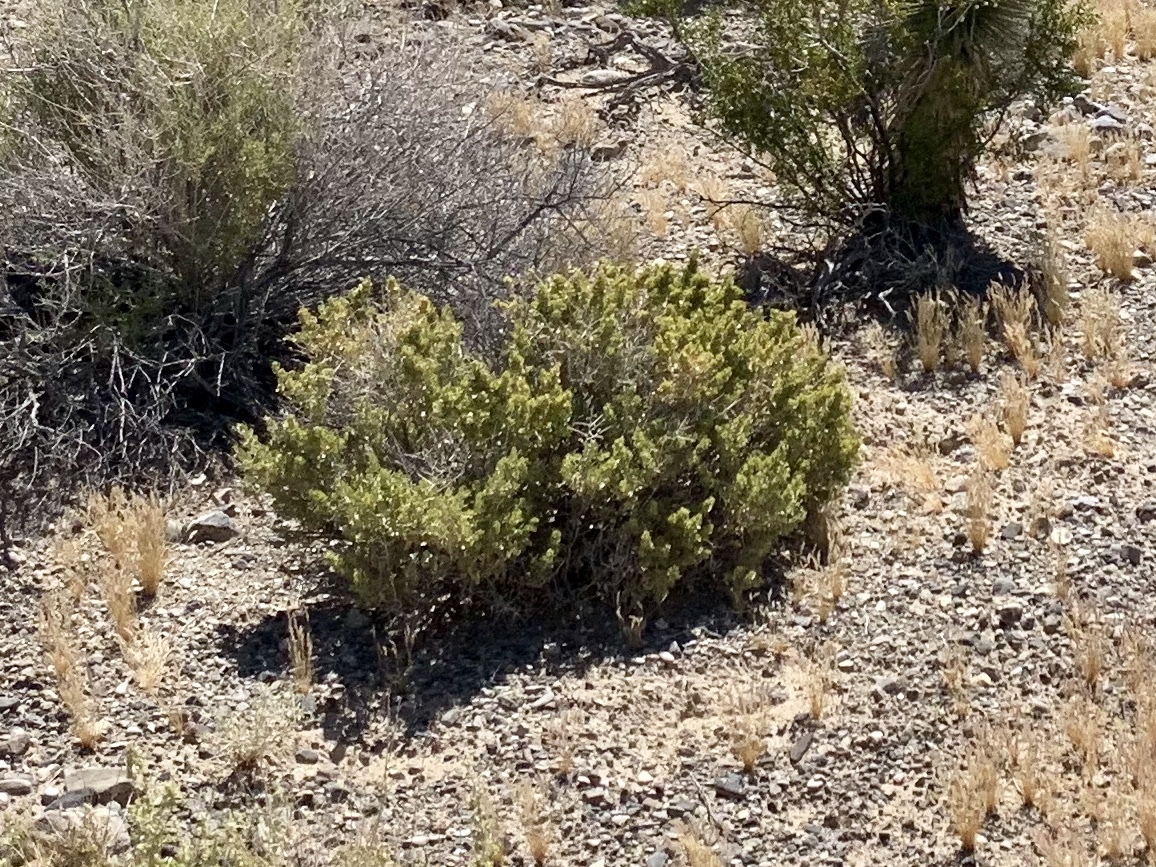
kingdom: Plantae
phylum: Tracheophyta
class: Magnoliopsida
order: Zygophyllales
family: Zygophyllaceae
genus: Larrea
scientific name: Larrea tridentata
